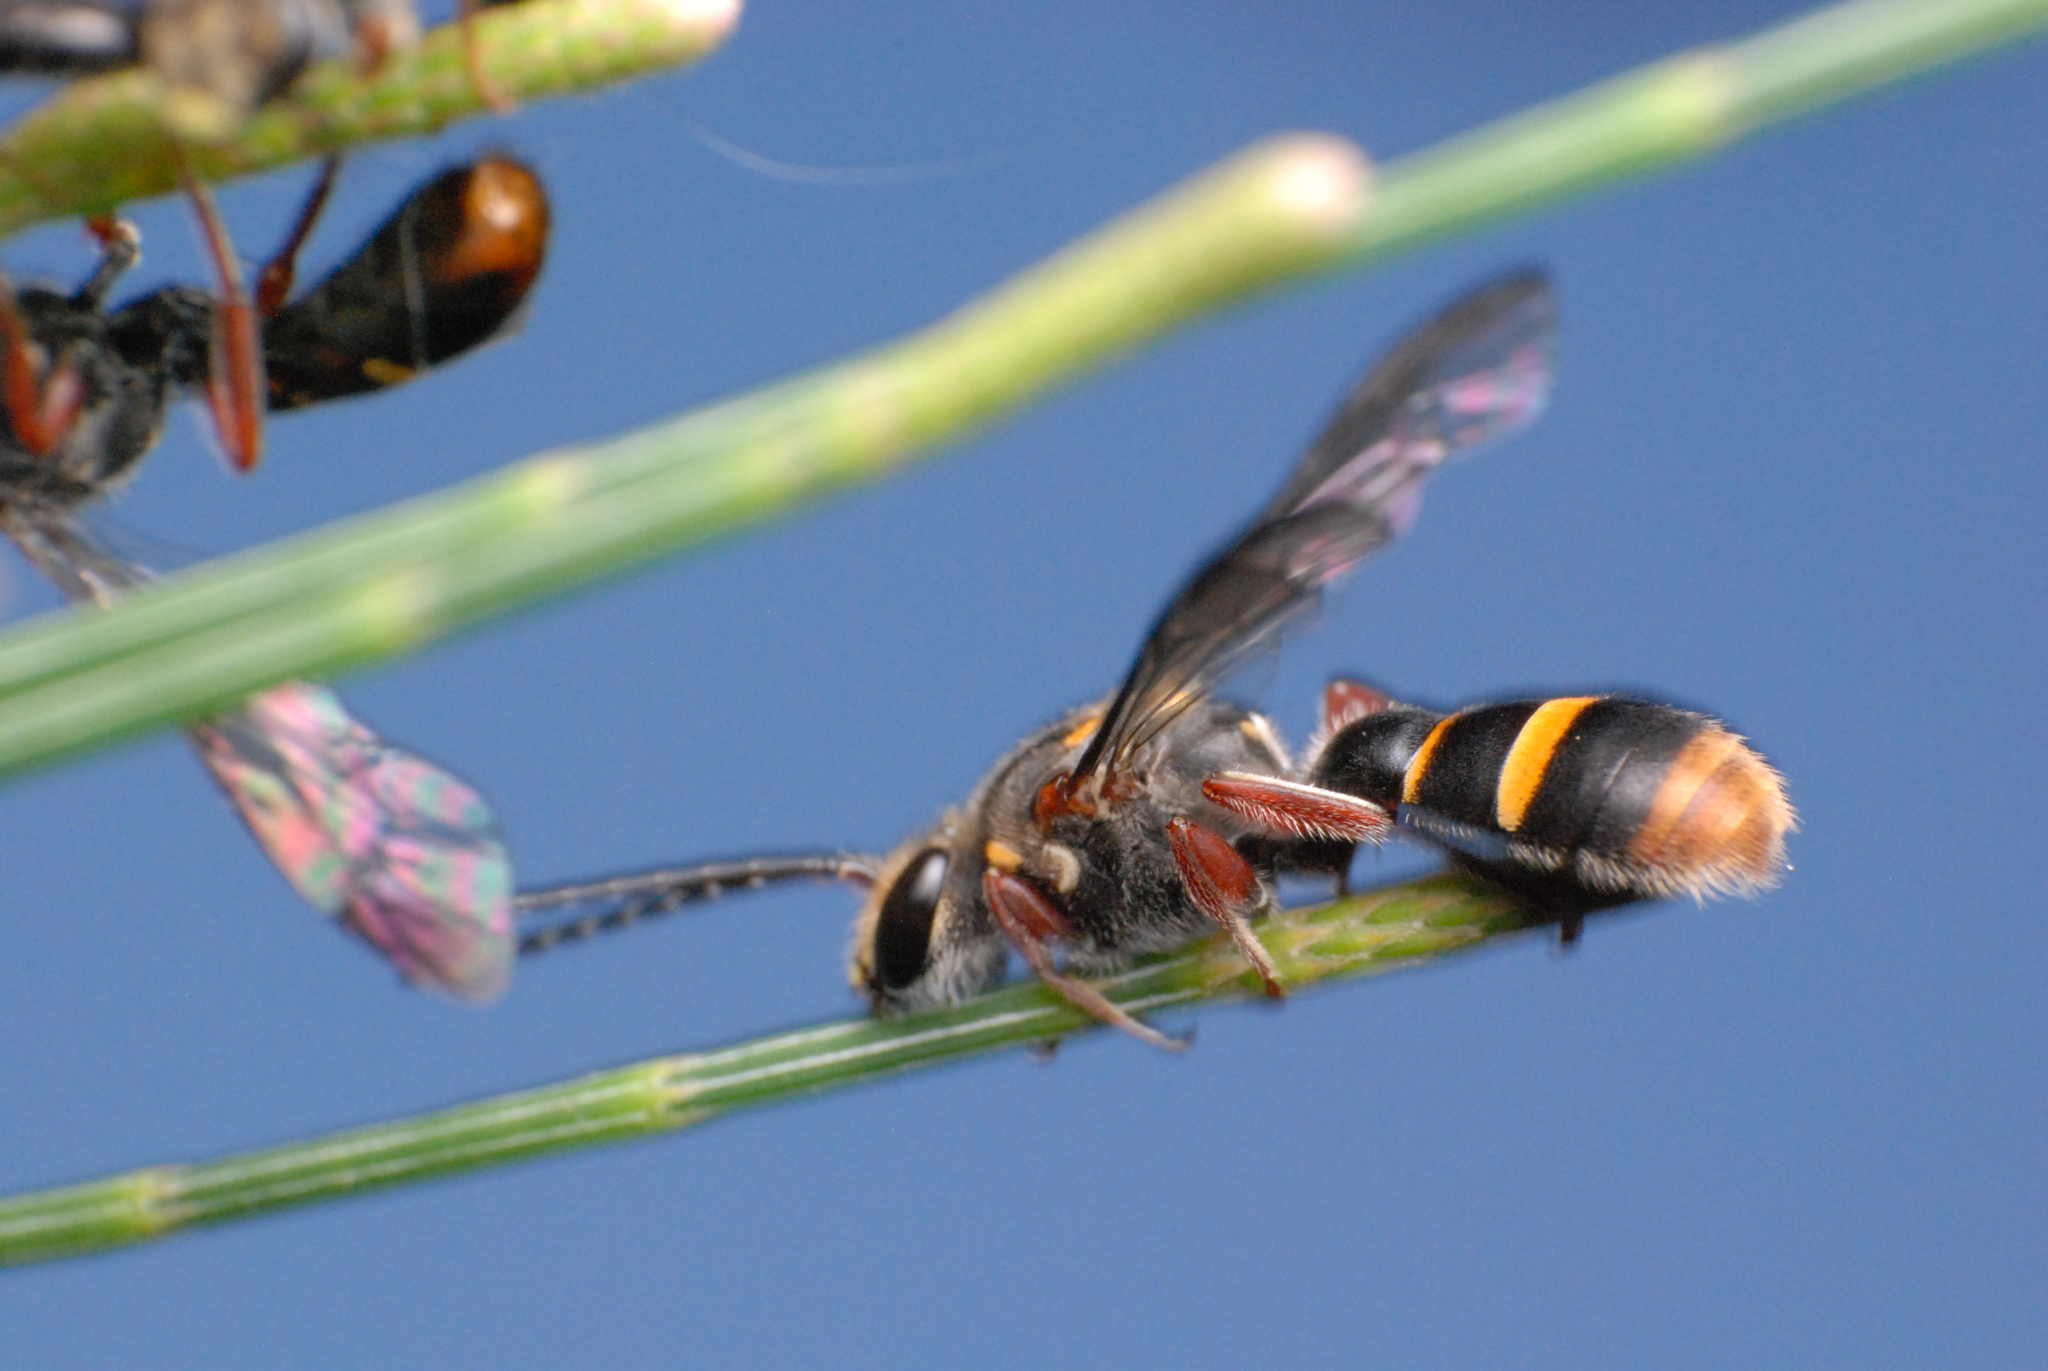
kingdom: Animalia
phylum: Arthropoda
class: Insecta
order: Hymenoptera
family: Halictidae
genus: Lasioglossum
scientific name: Lasioglossum peraustrale
